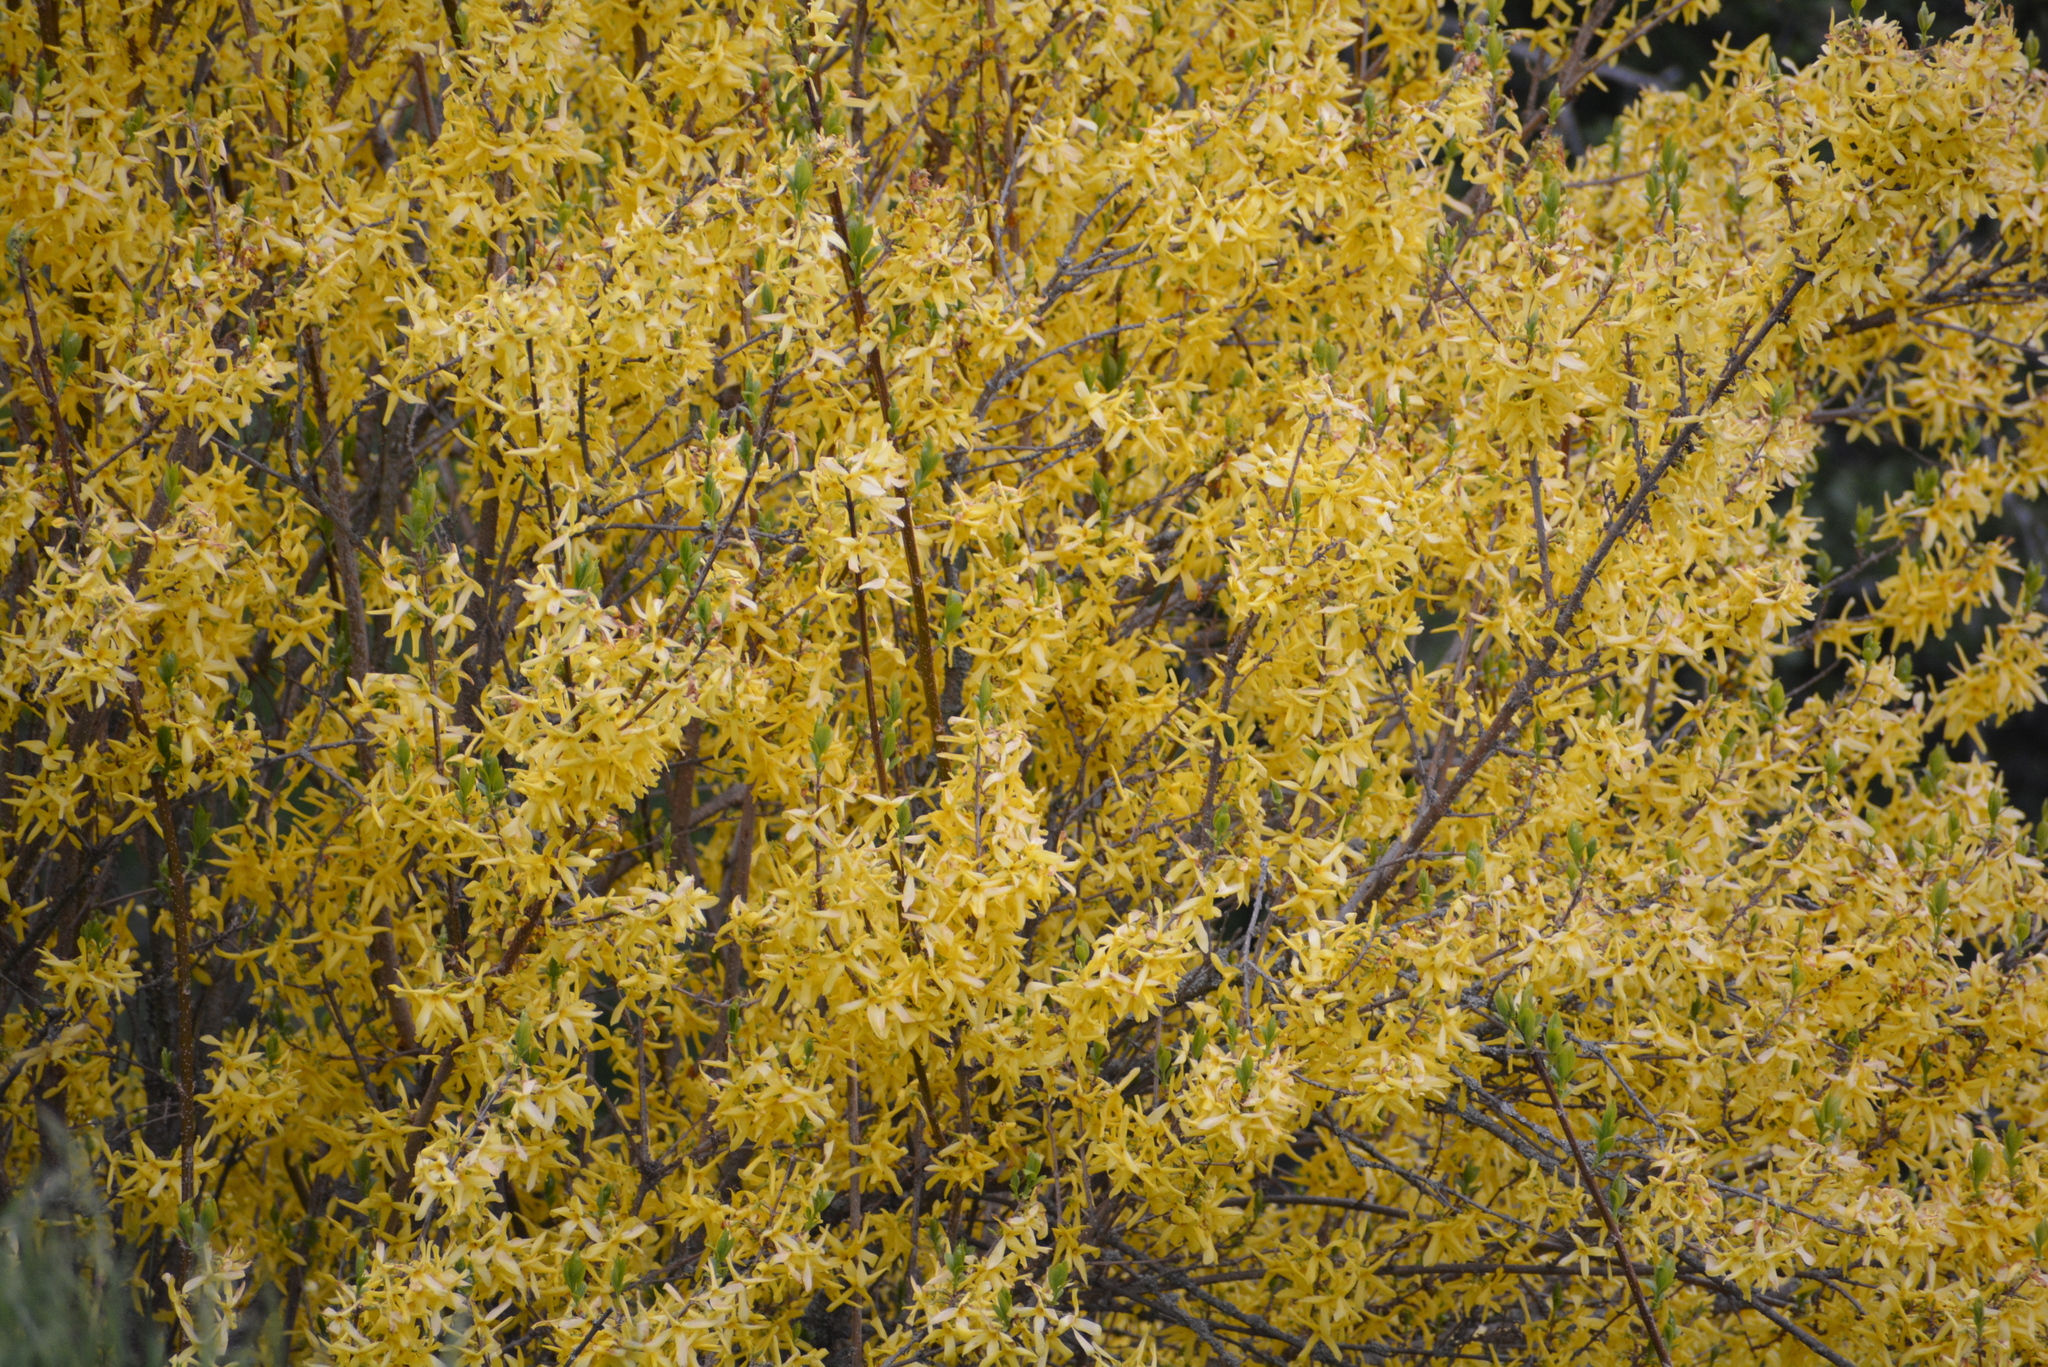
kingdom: Plantae
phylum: Tracheophyta
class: Magnoliopsida
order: Lamiales
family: Oleaceae
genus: Forsythia
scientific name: Forsythia intermedia
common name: Forsythia
